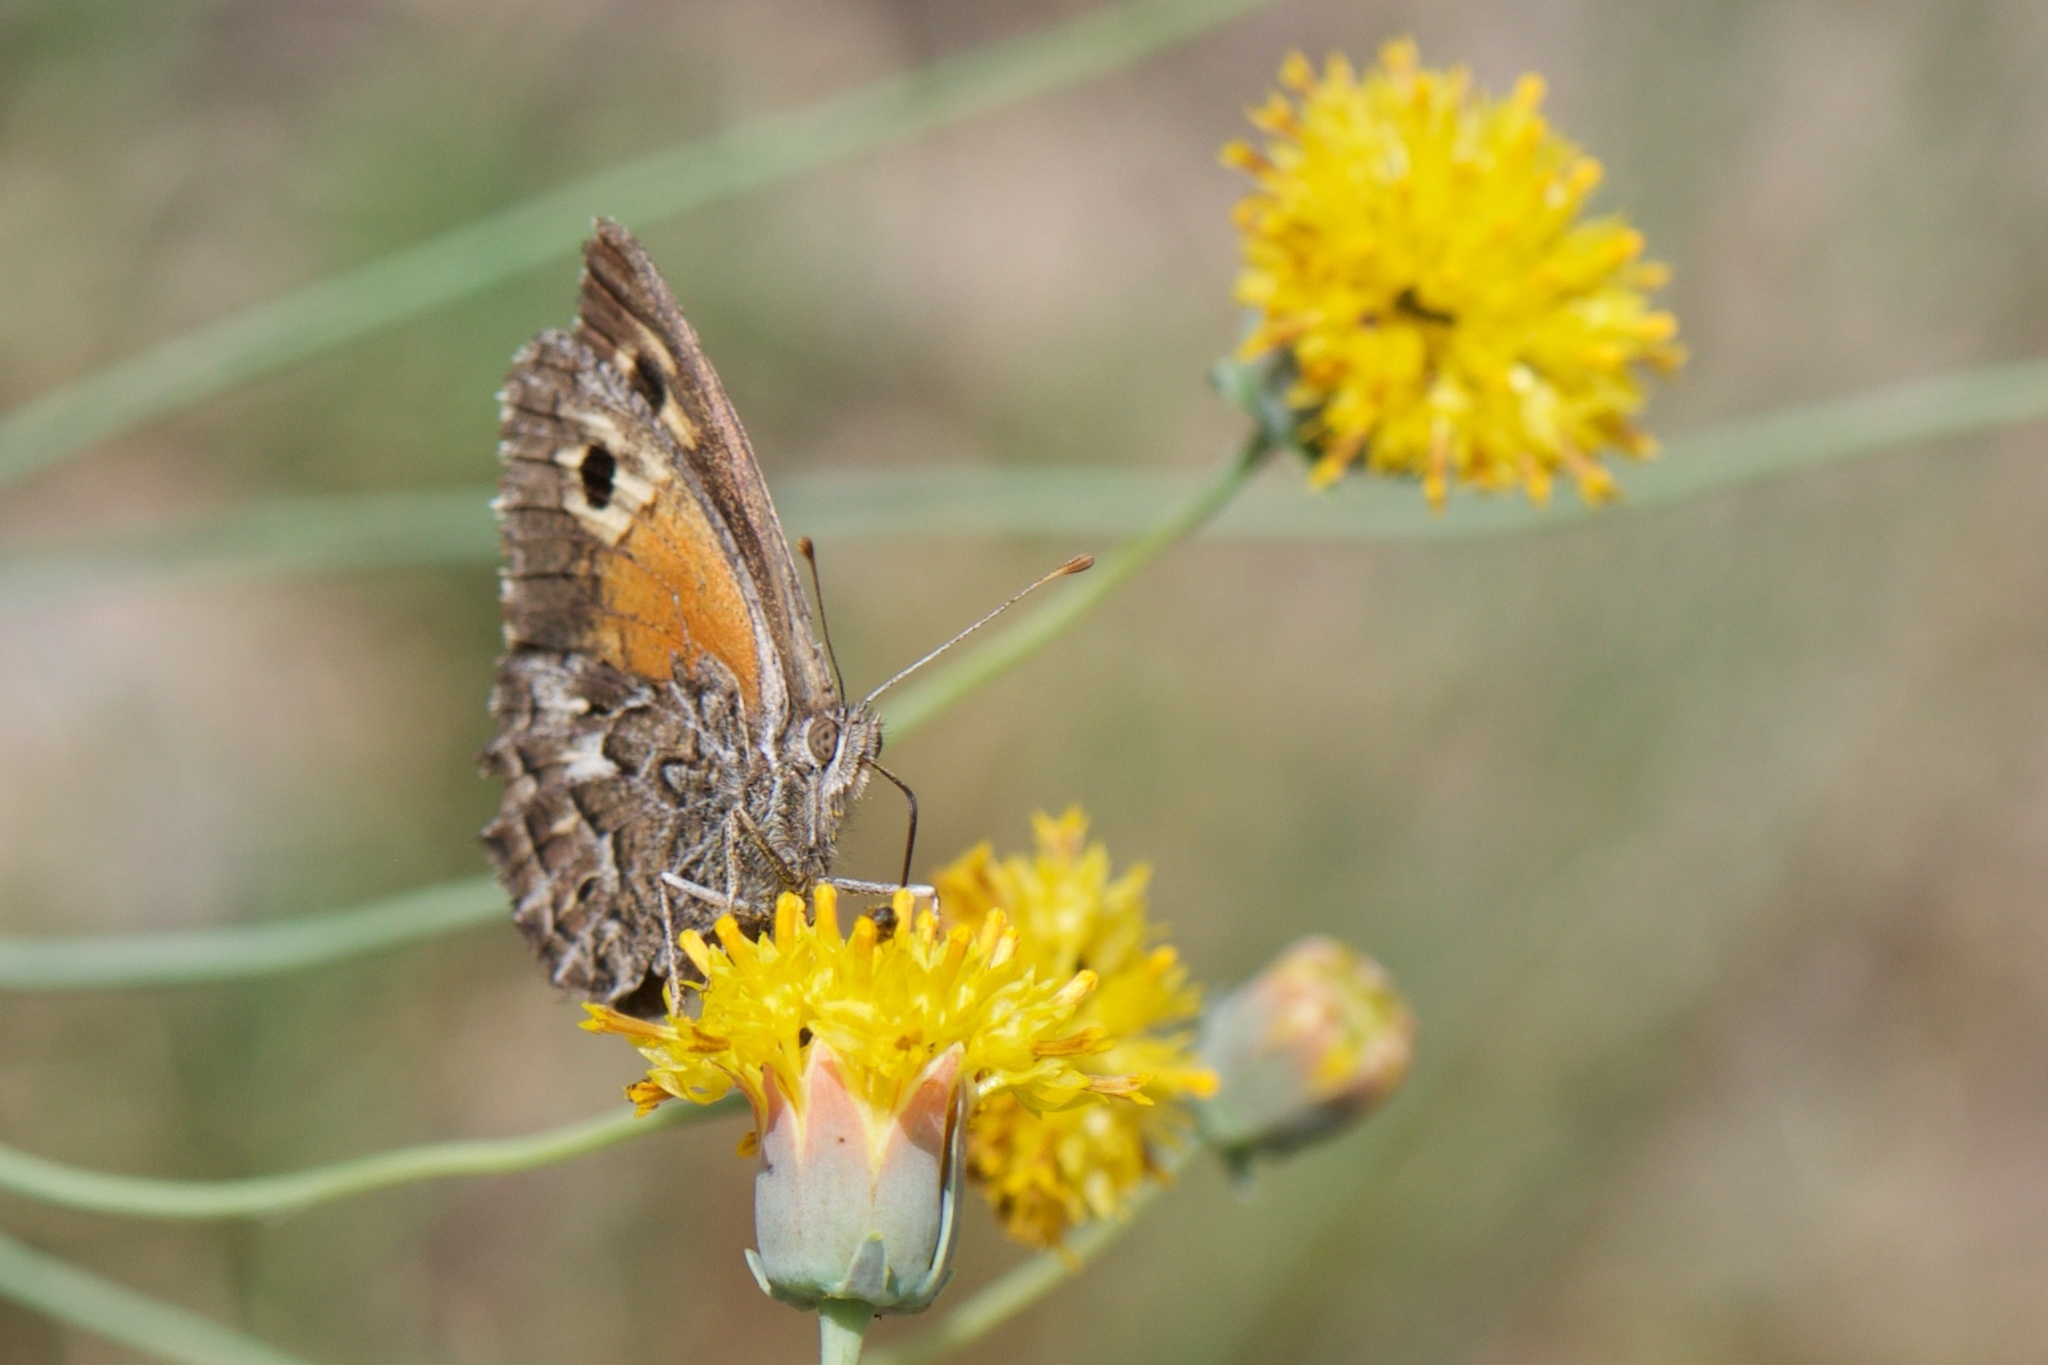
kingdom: Animalia
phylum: Arthropoda
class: Insecta
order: Lepidoptera
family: Nymphalidae
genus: Argyrophorus
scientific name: Argyrophorus
